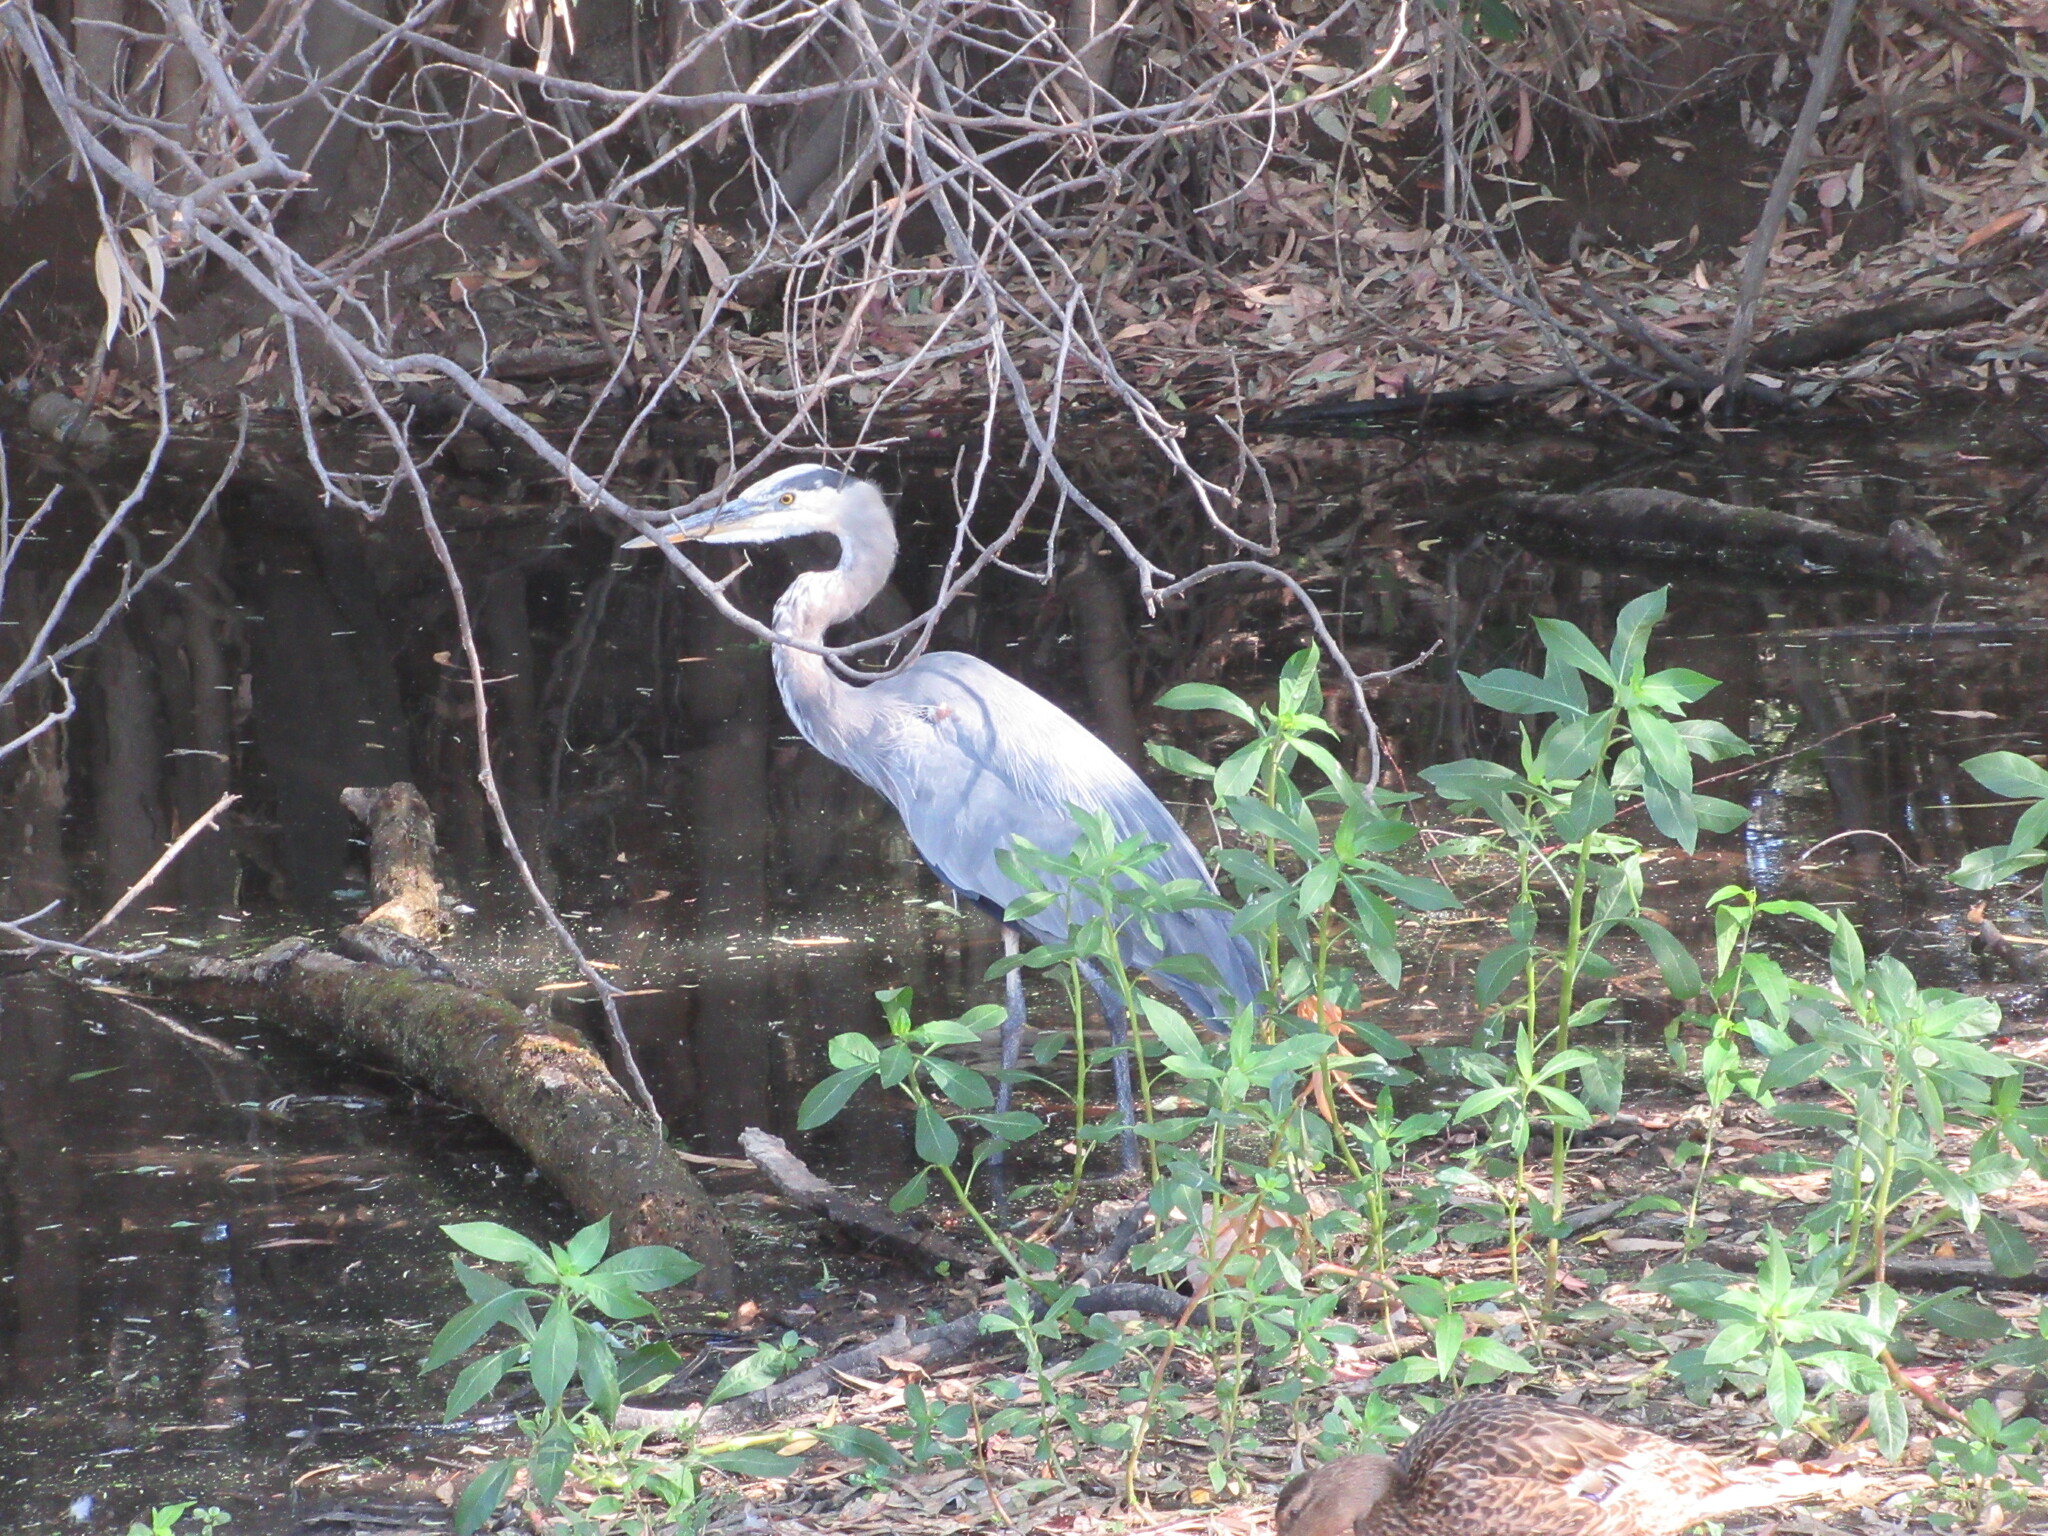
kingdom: Animalia
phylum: Chordata
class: Aves
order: Pelecaniformes
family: Ardeidae
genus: Ardea
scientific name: Ardea herodias
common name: Great blue heron
